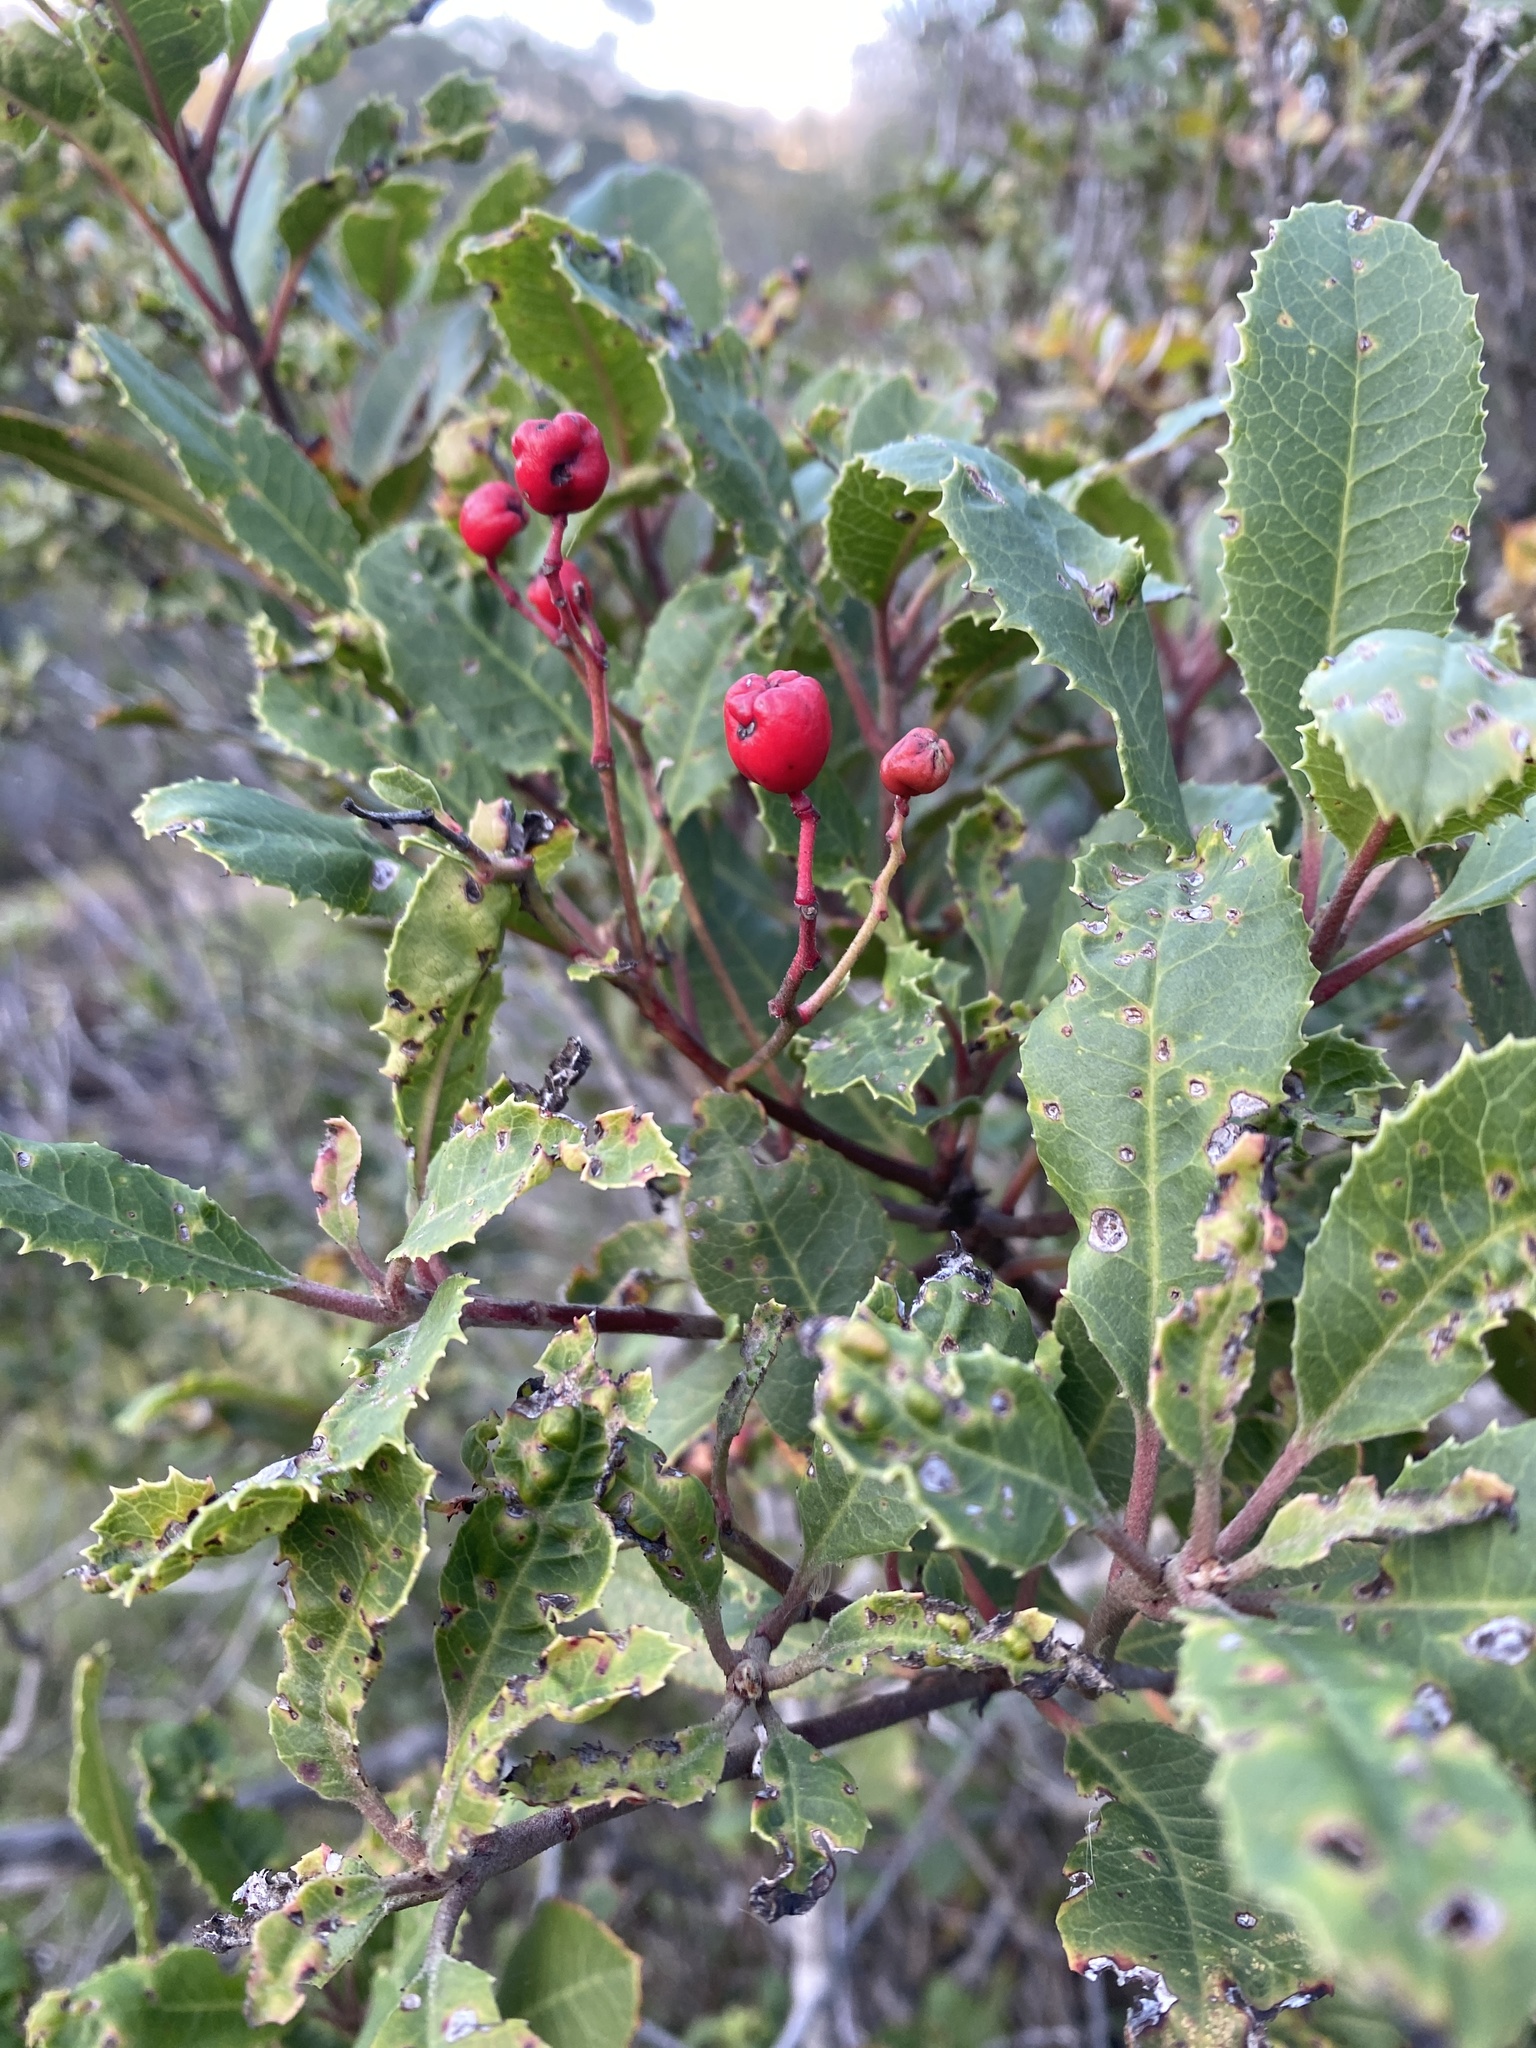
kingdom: Plantae
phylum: Tracheophyta
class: Magnoliopsida
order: Rosales
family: Rosaceae
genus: Heteromeles
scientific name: Heteromeles arbutifolia
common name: California-holly
